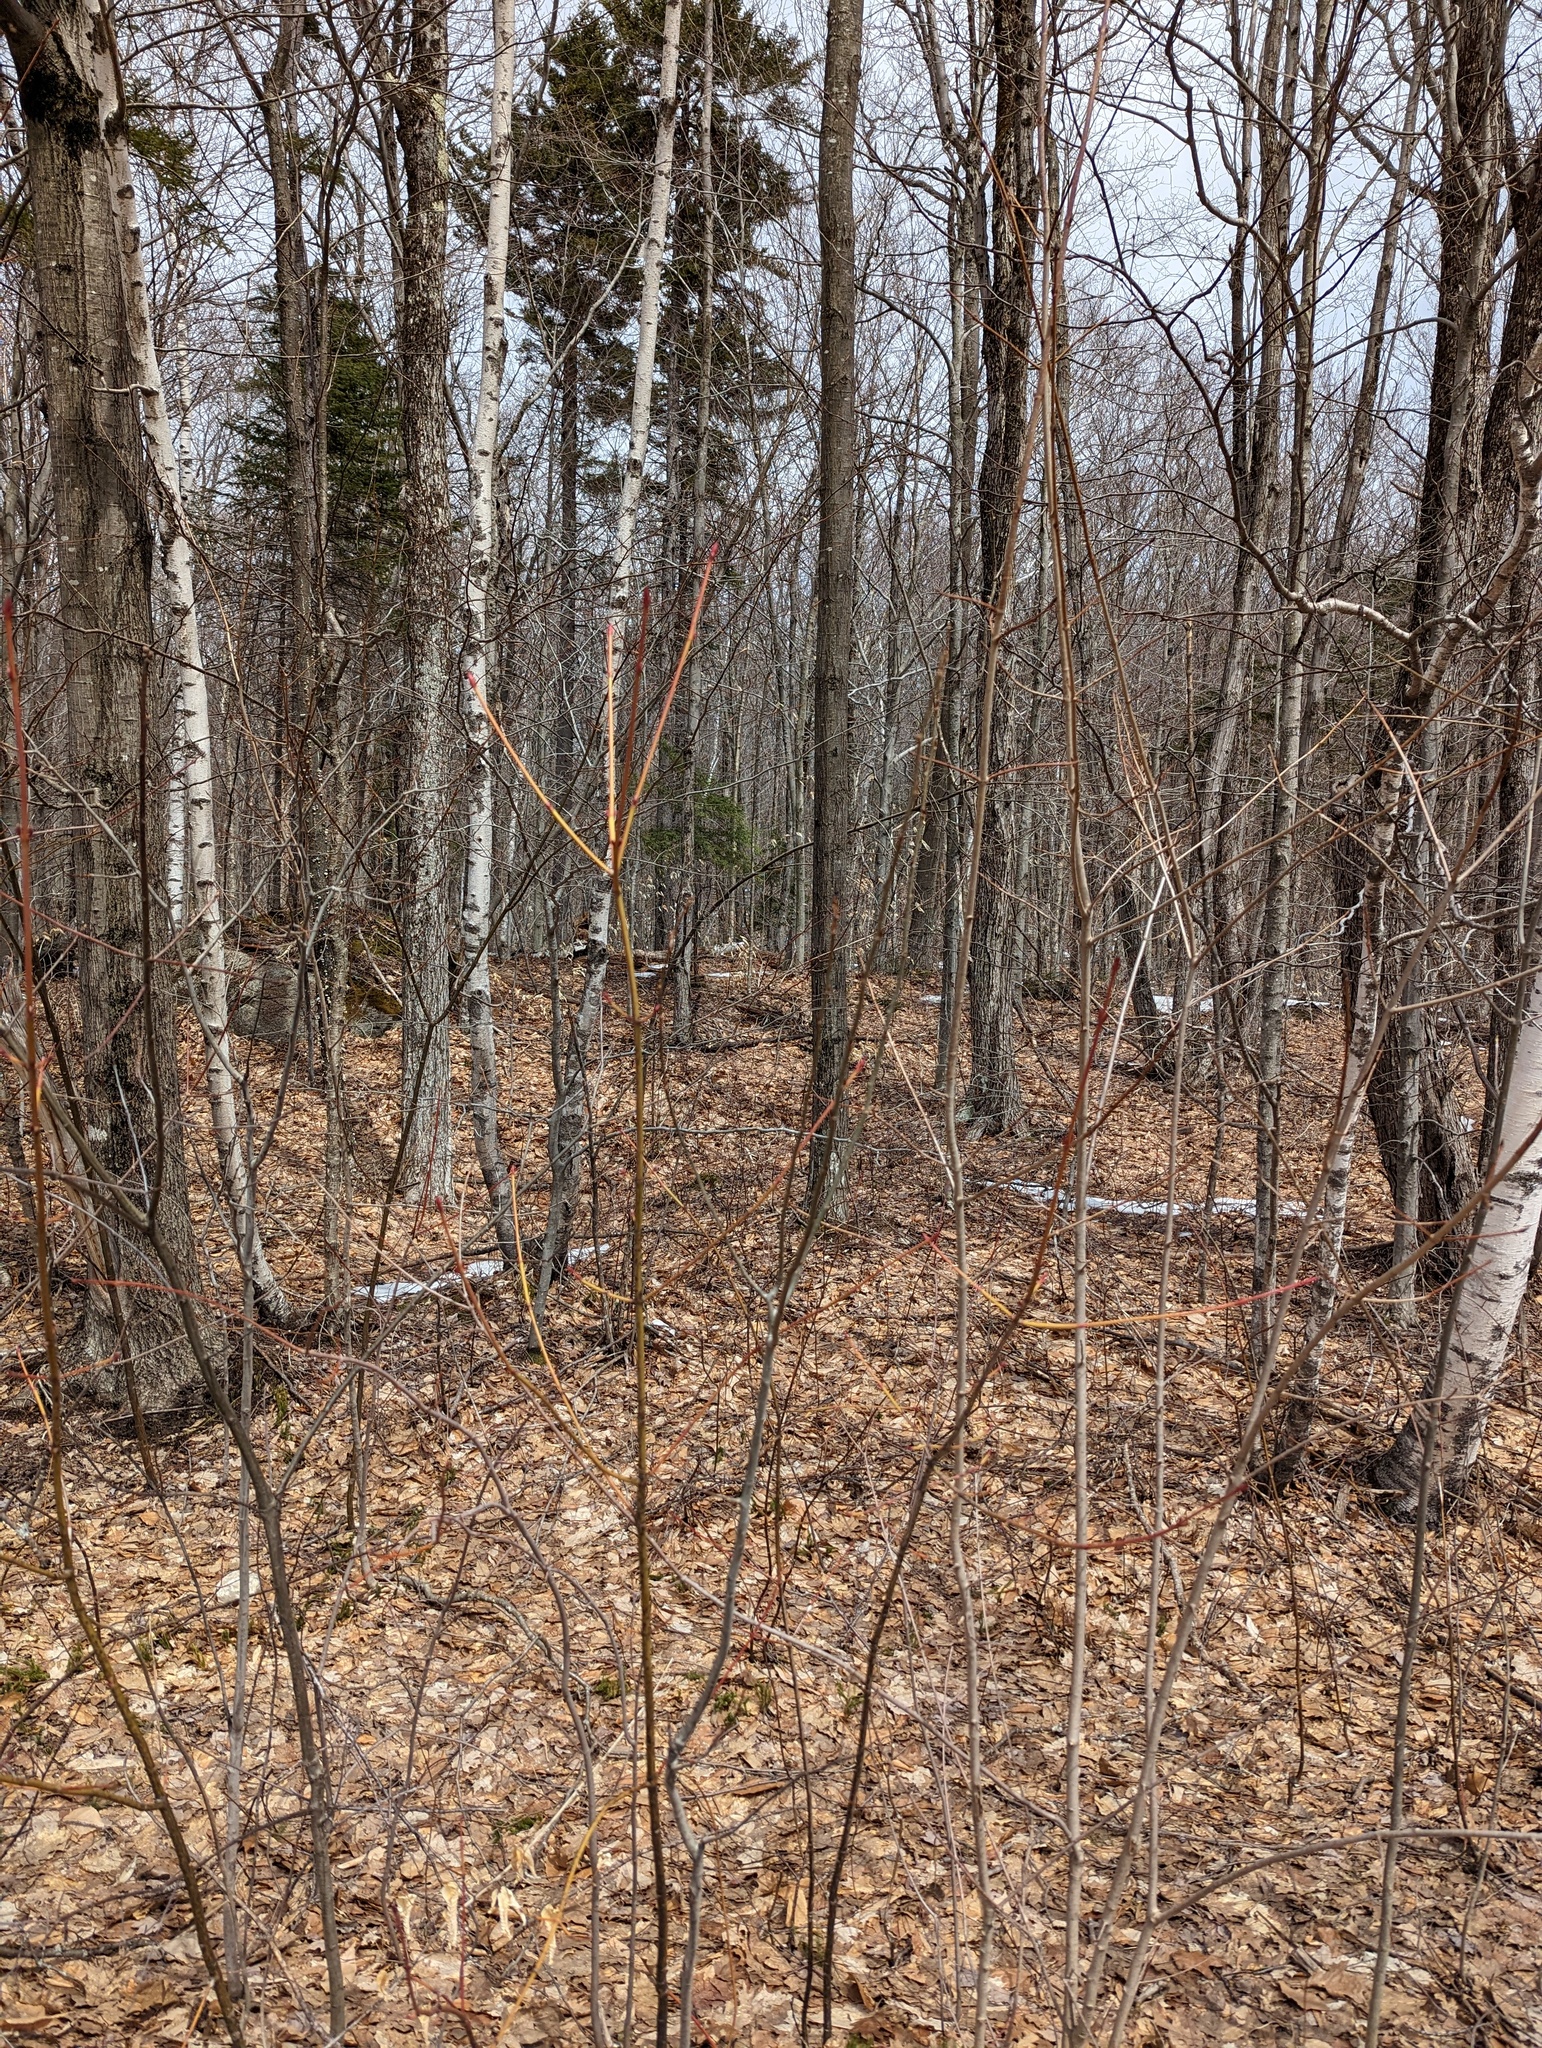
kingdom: Plantae
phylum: Tracheophyta
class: Magnoliopsida
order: Sapindales
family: Sapindaceae
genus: Acer
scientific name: Acer pensylvanicum
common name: Moosewood
